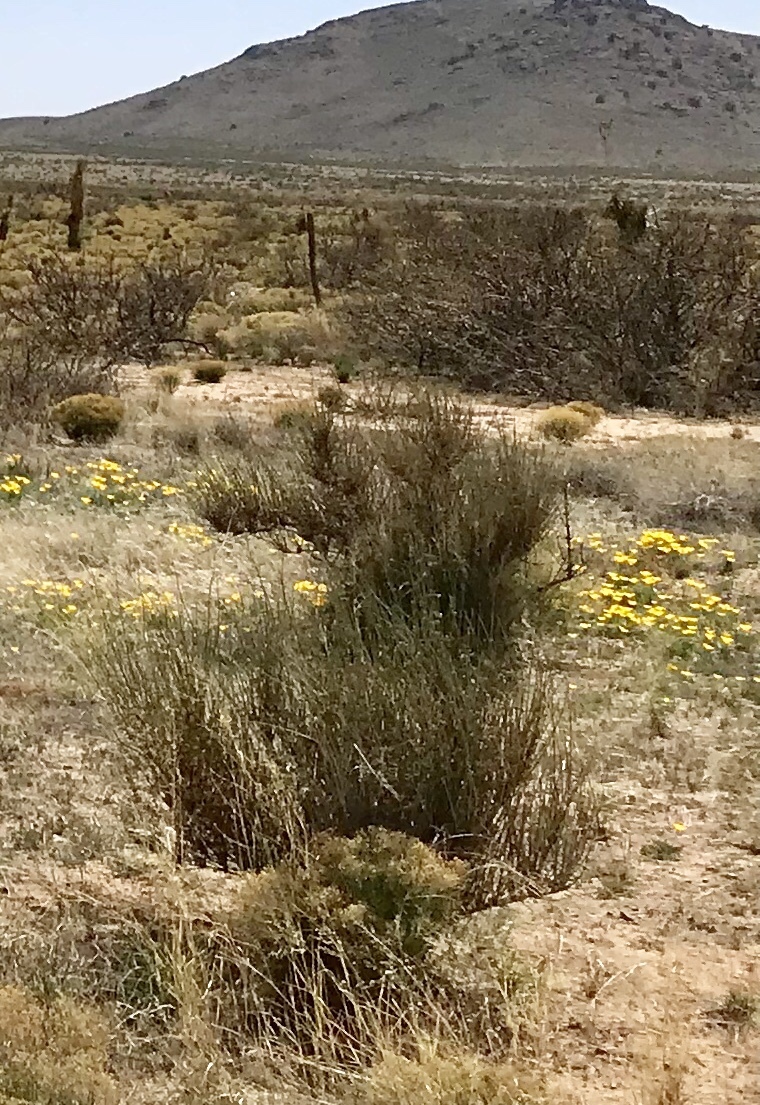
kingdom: Plantae
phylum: Tracheophyta
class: Gnetopsida
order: Ephedrales
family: Ephedraceae
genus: Ephedra
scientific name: Ephedra trifurca
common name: Mexican-tea
